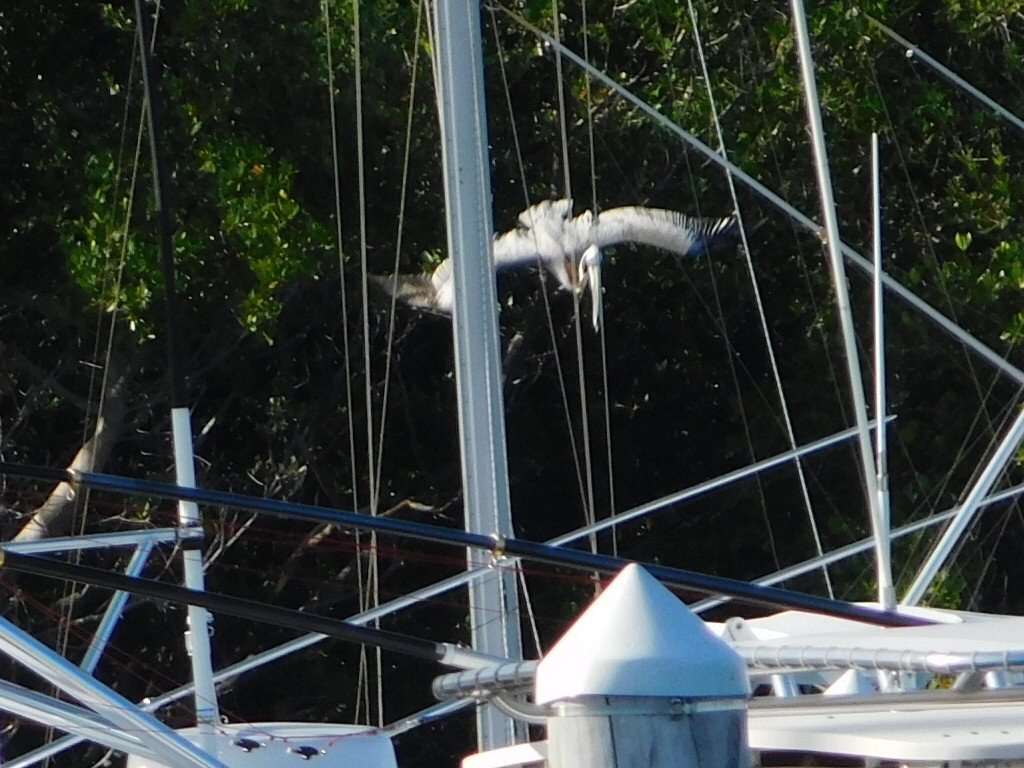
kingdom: Animalia
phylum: Chordata
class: Aves
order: Pelecaniformes
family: Pelecanidae
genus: Pelecanus
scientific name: Pelecanus occidentalis
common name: Brown pelican
